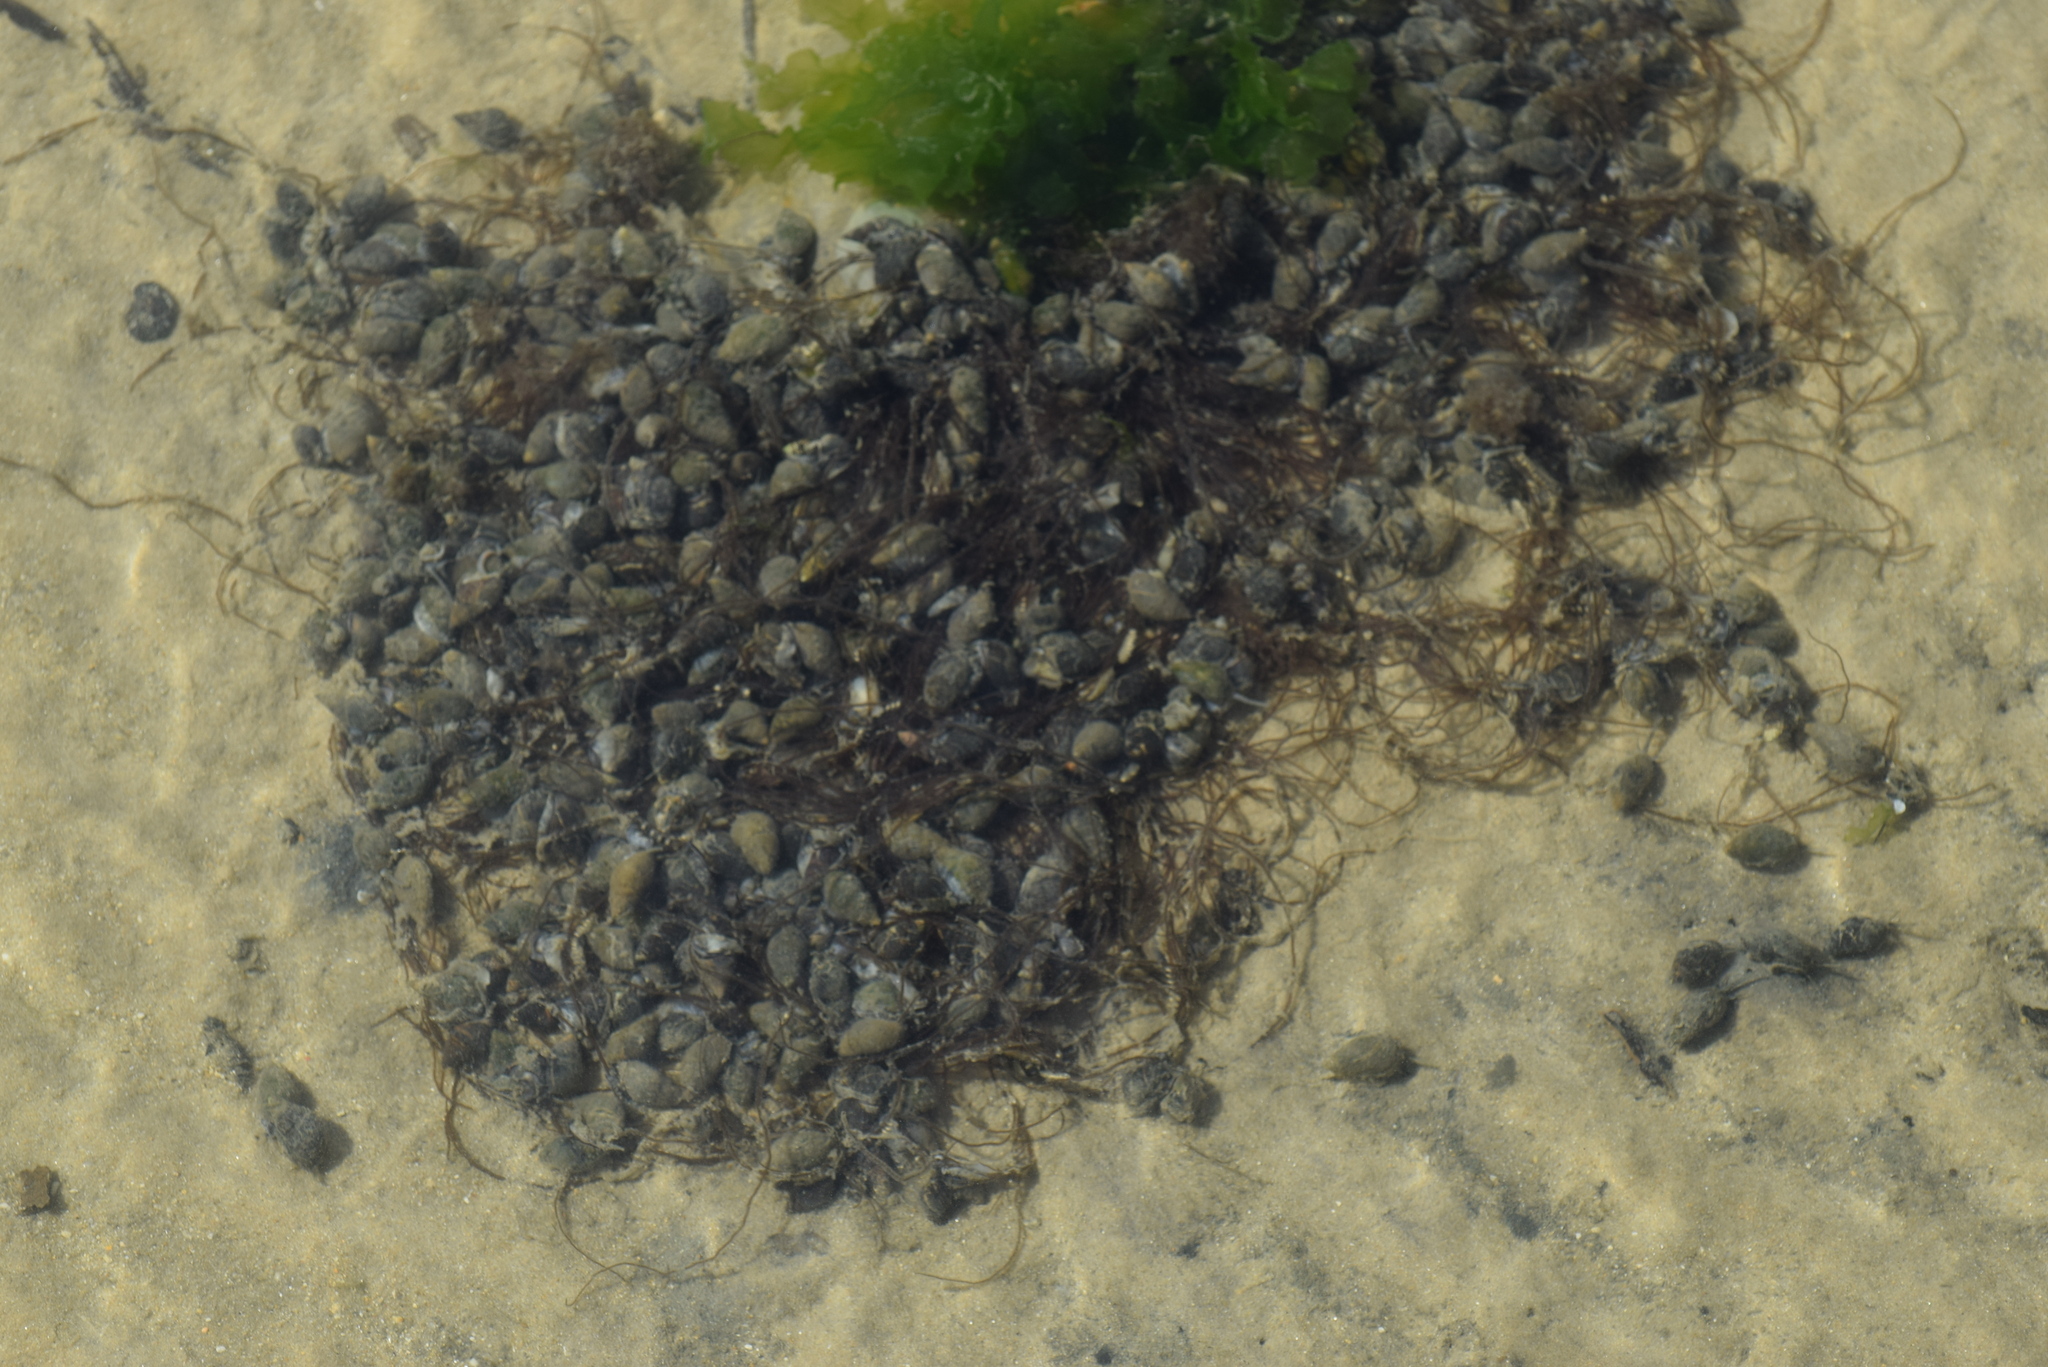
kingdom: Animalia
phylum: Mollusca
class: Gastropoda
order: Neogastropoda
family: Nassariidae
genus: Ilyanassa
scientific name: Ilyanassa obsoleta
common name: Eastern mudsnail
